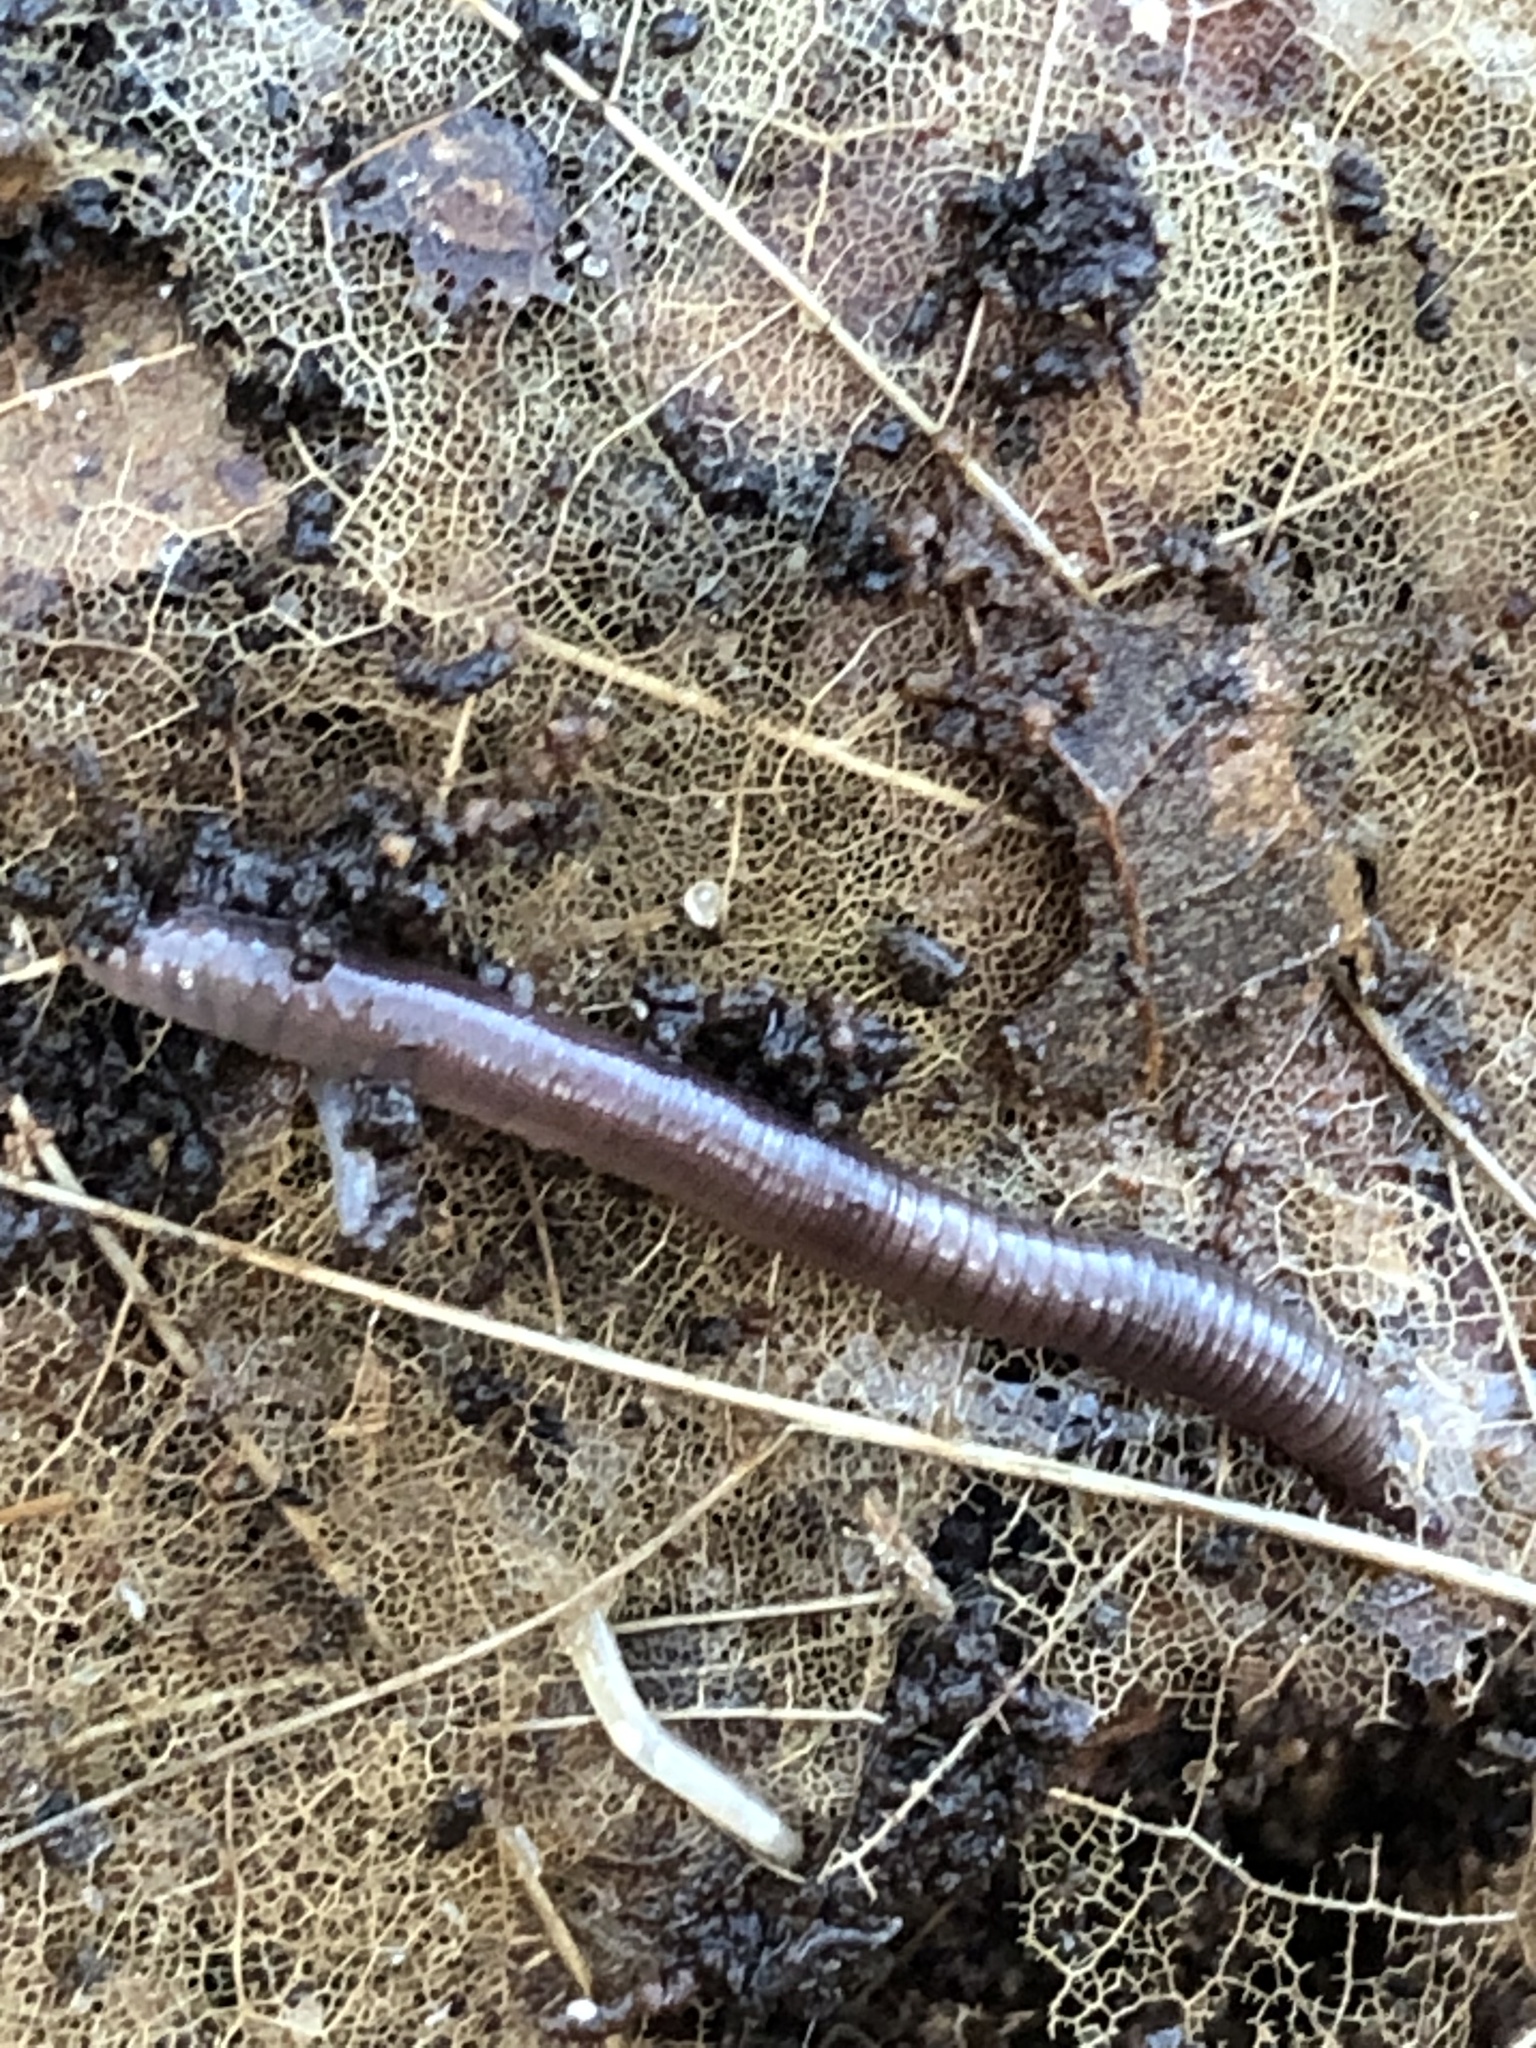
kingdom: Animalia
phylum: Annelida
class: Clitellata
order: Crassiclitellata
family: Lumbricidae
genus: Lumbricus
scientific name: Lumbricus terrestris
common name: Common earthworm
